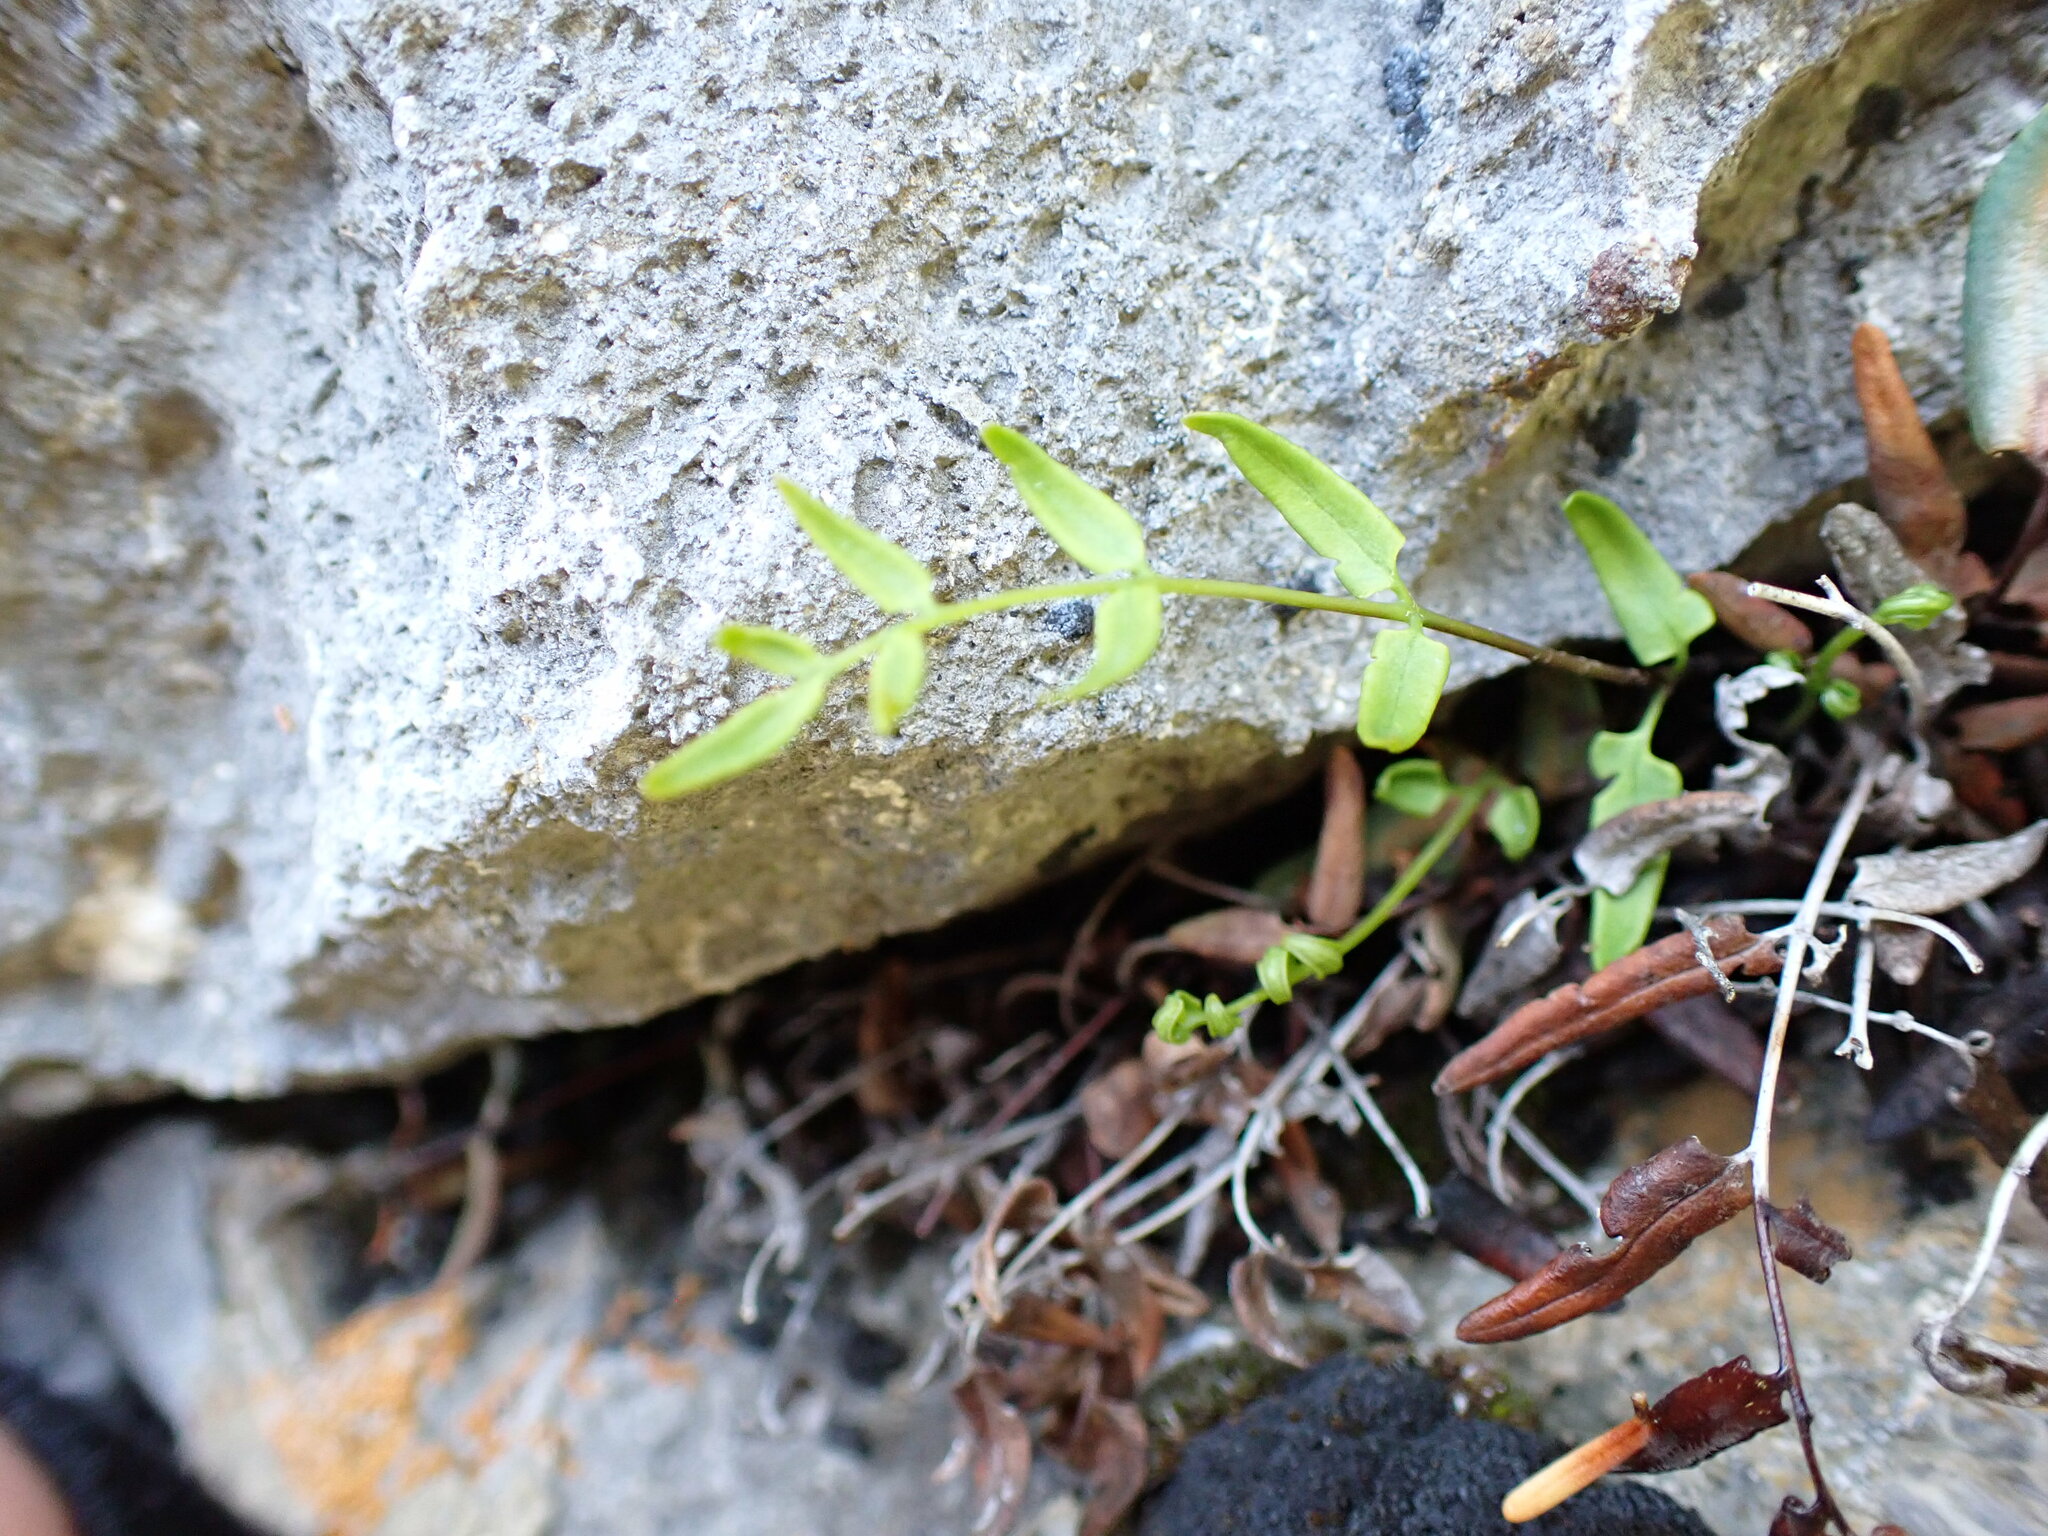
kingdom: Plantae
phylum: Tracheophyta
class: Polypodiopsida
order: Polypodiales
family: Pteridaceae
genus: Pellaea
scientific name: Pellaea glabella
